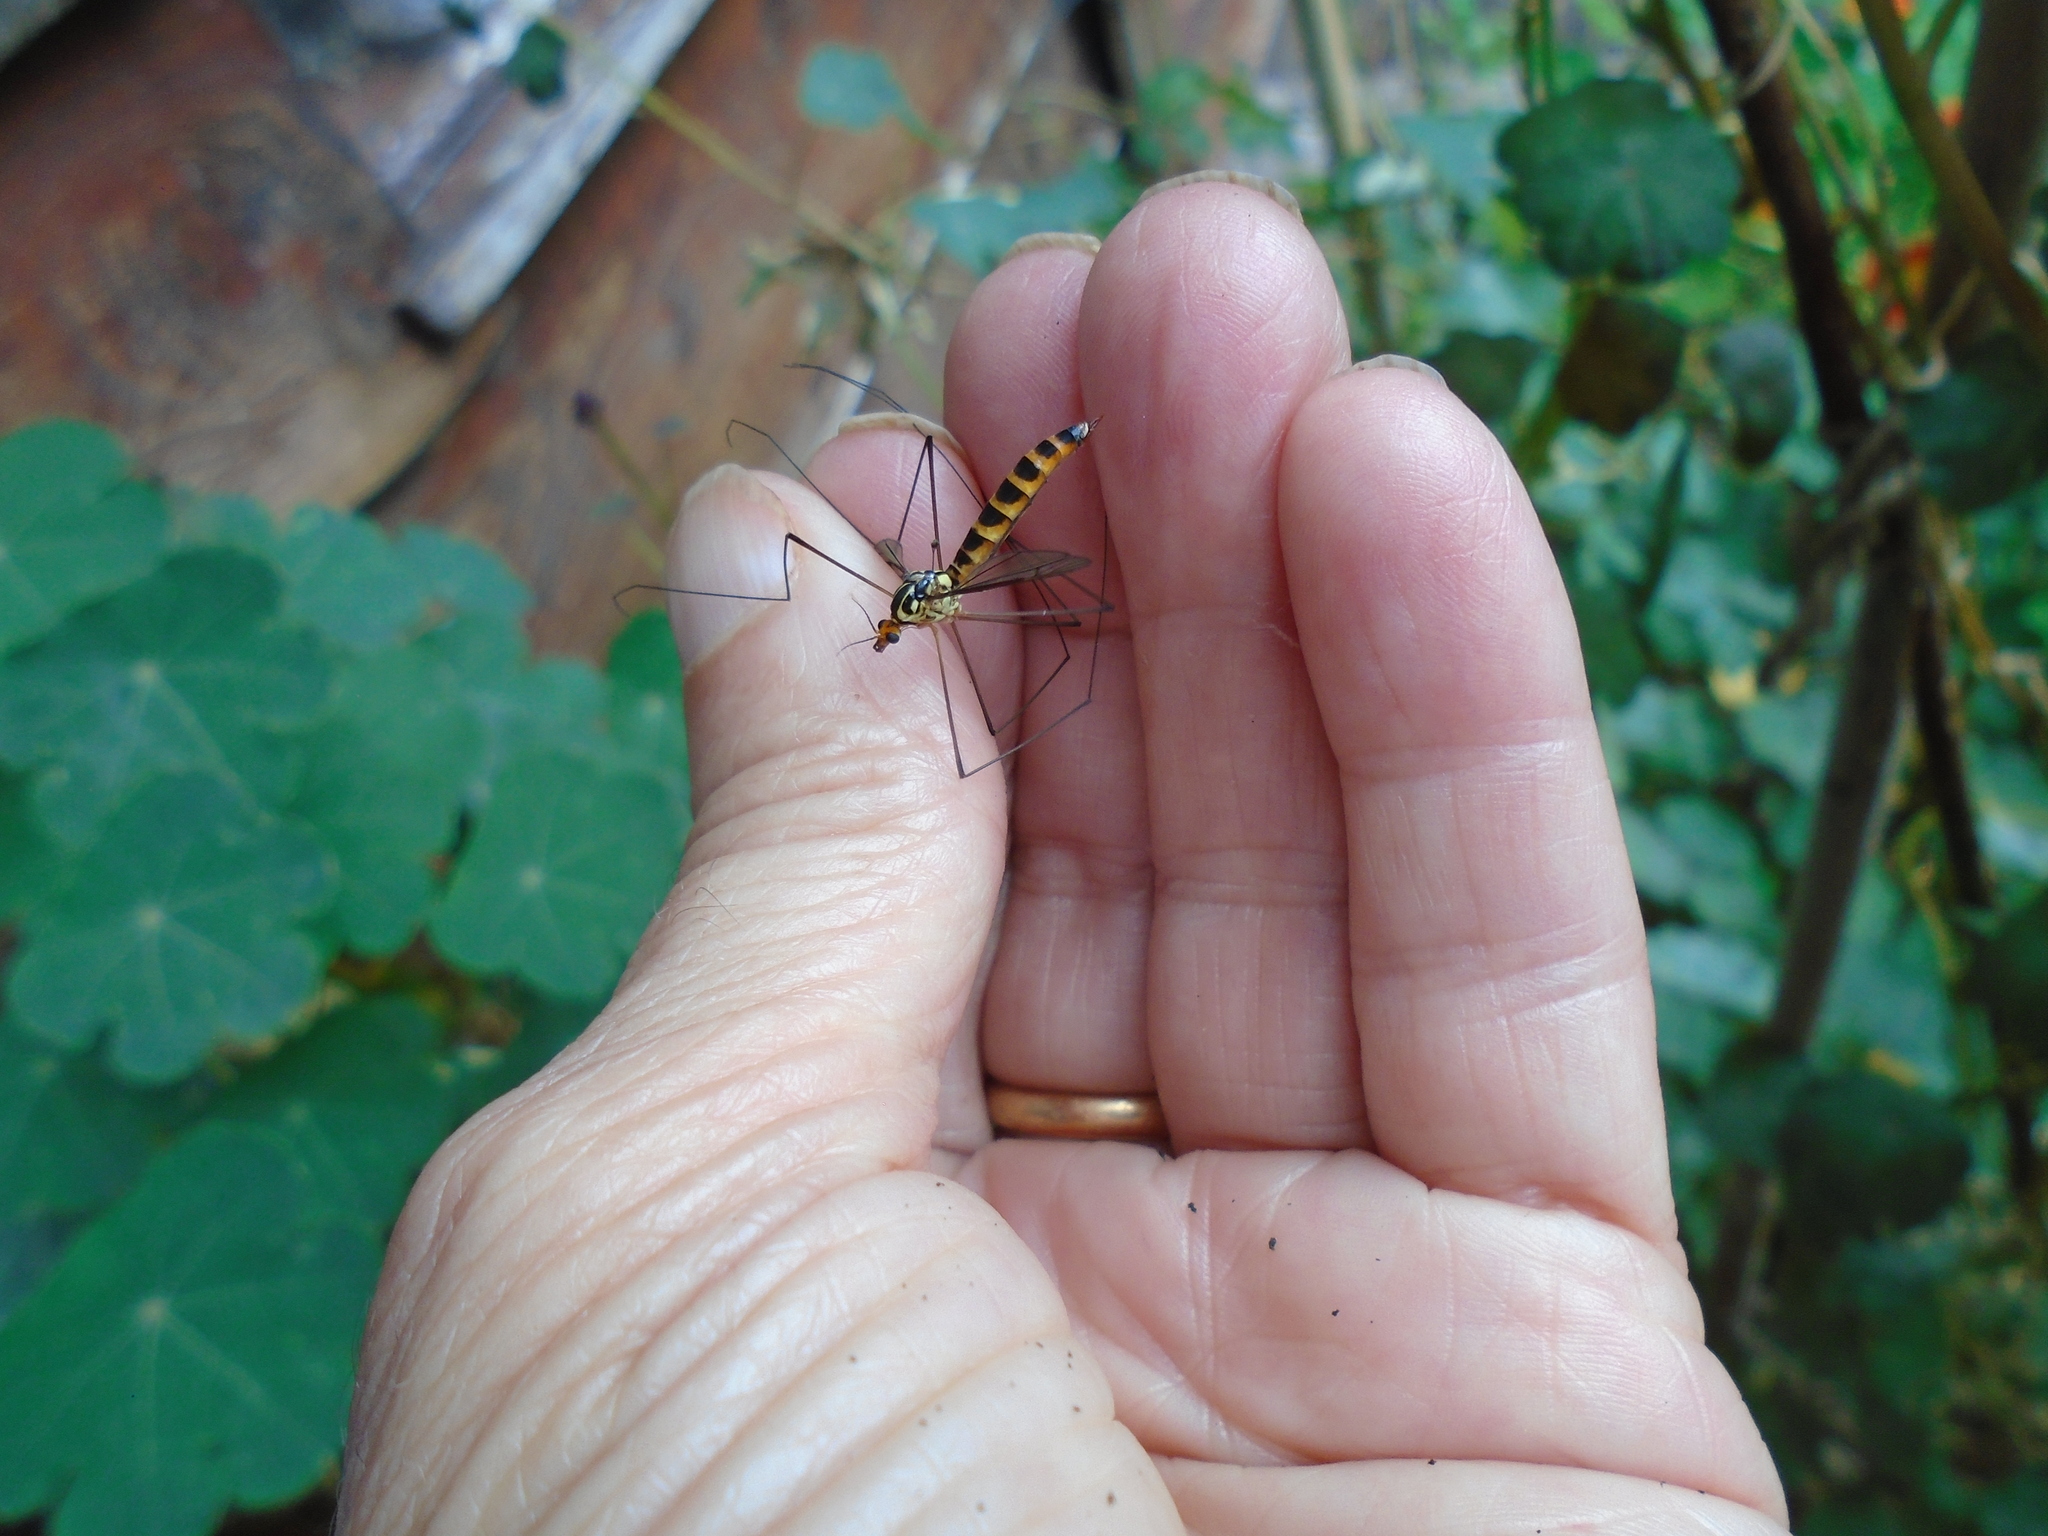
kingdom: Animalia
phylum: Arthropoda
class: Insecta
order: Diptera
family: Tipulidae
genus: Nephrotoma
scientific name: Nephrotoma flavipalpis
